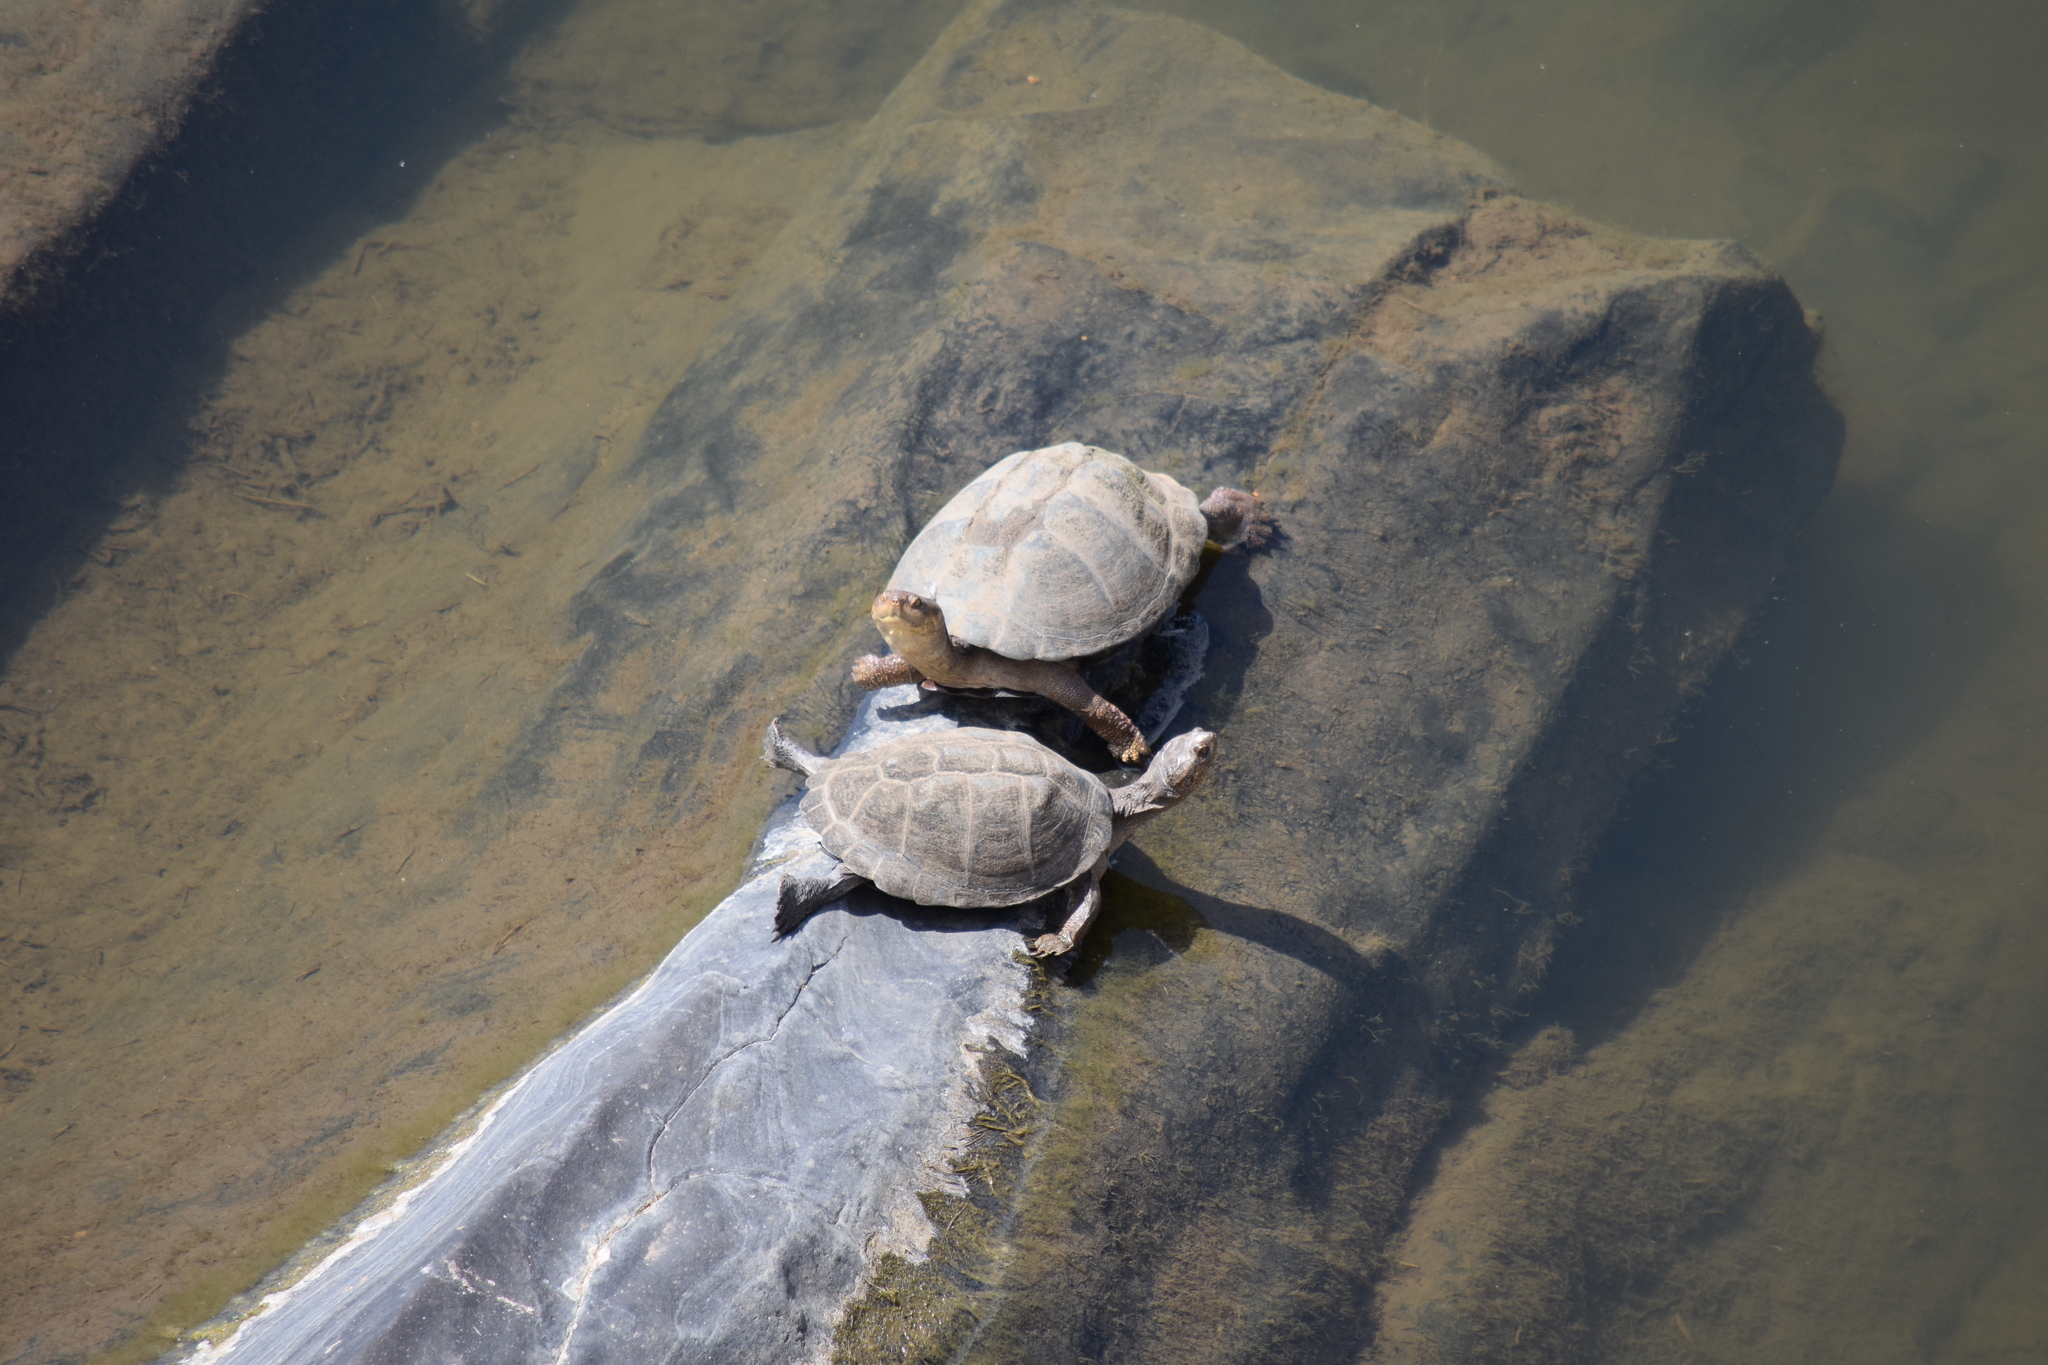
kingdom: Animalia
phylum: Chordata
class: Testudines
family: Pelomedusidae
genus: Pelusios
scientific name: Pelusios sinuatus
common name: Serrated hinged terrapin
